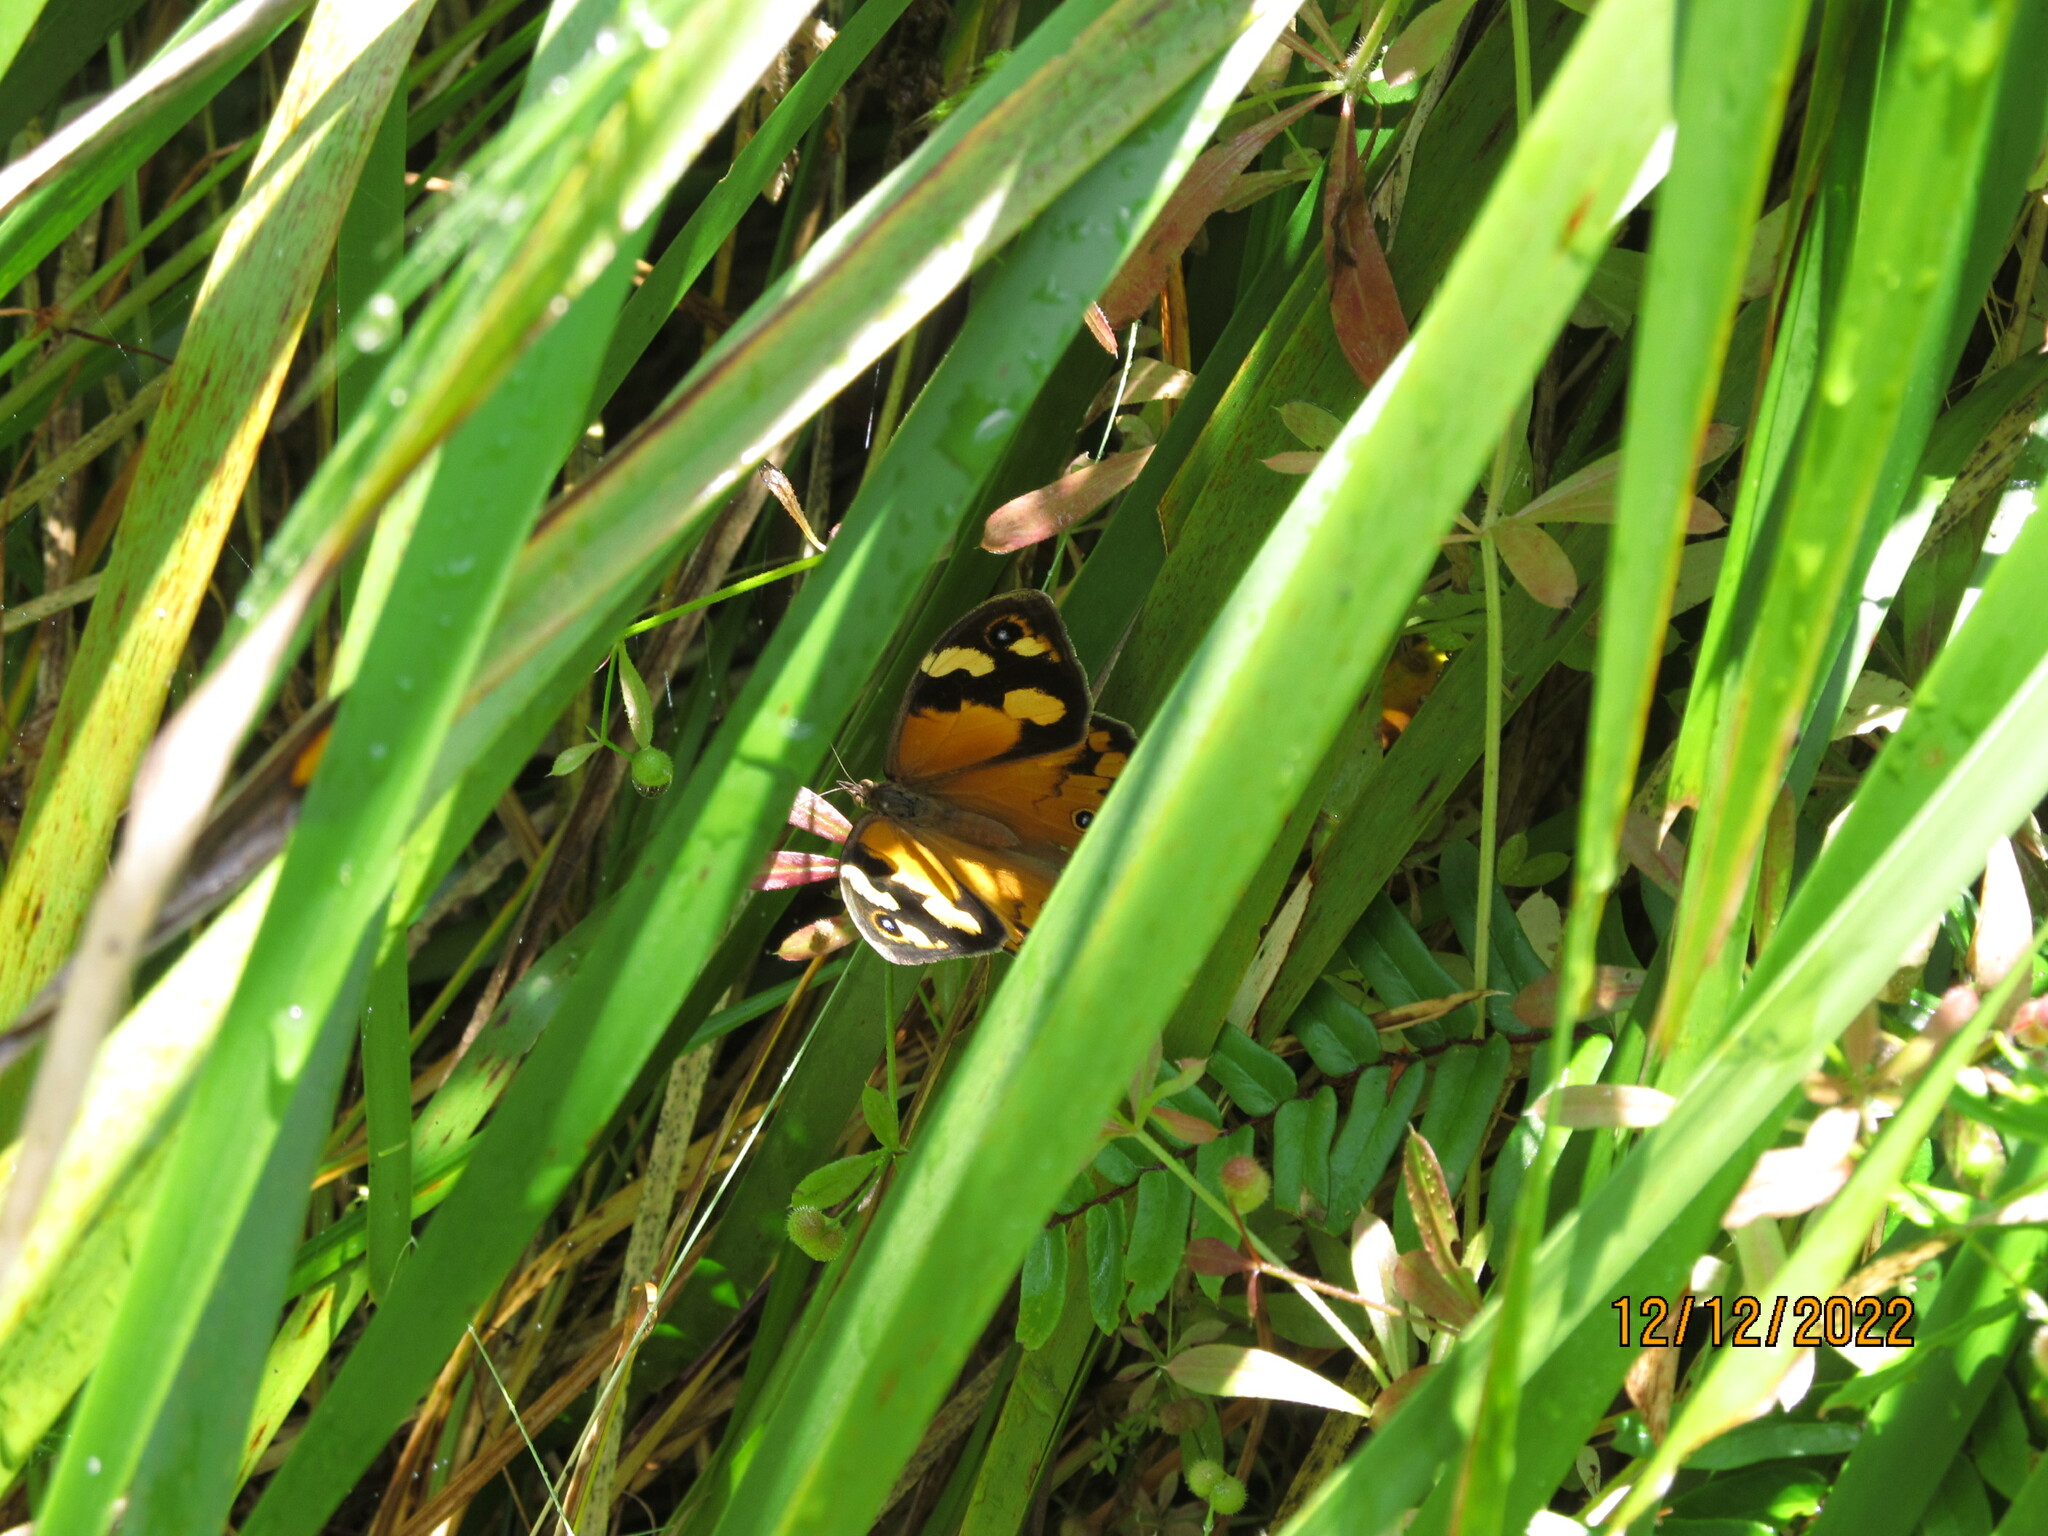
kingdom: Animalia
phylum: Arthropoda
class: Insecta
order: Lepidoptera
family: Nymphalidae
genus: Heteronympha
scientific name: Heteronympha merope
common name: Common brown
